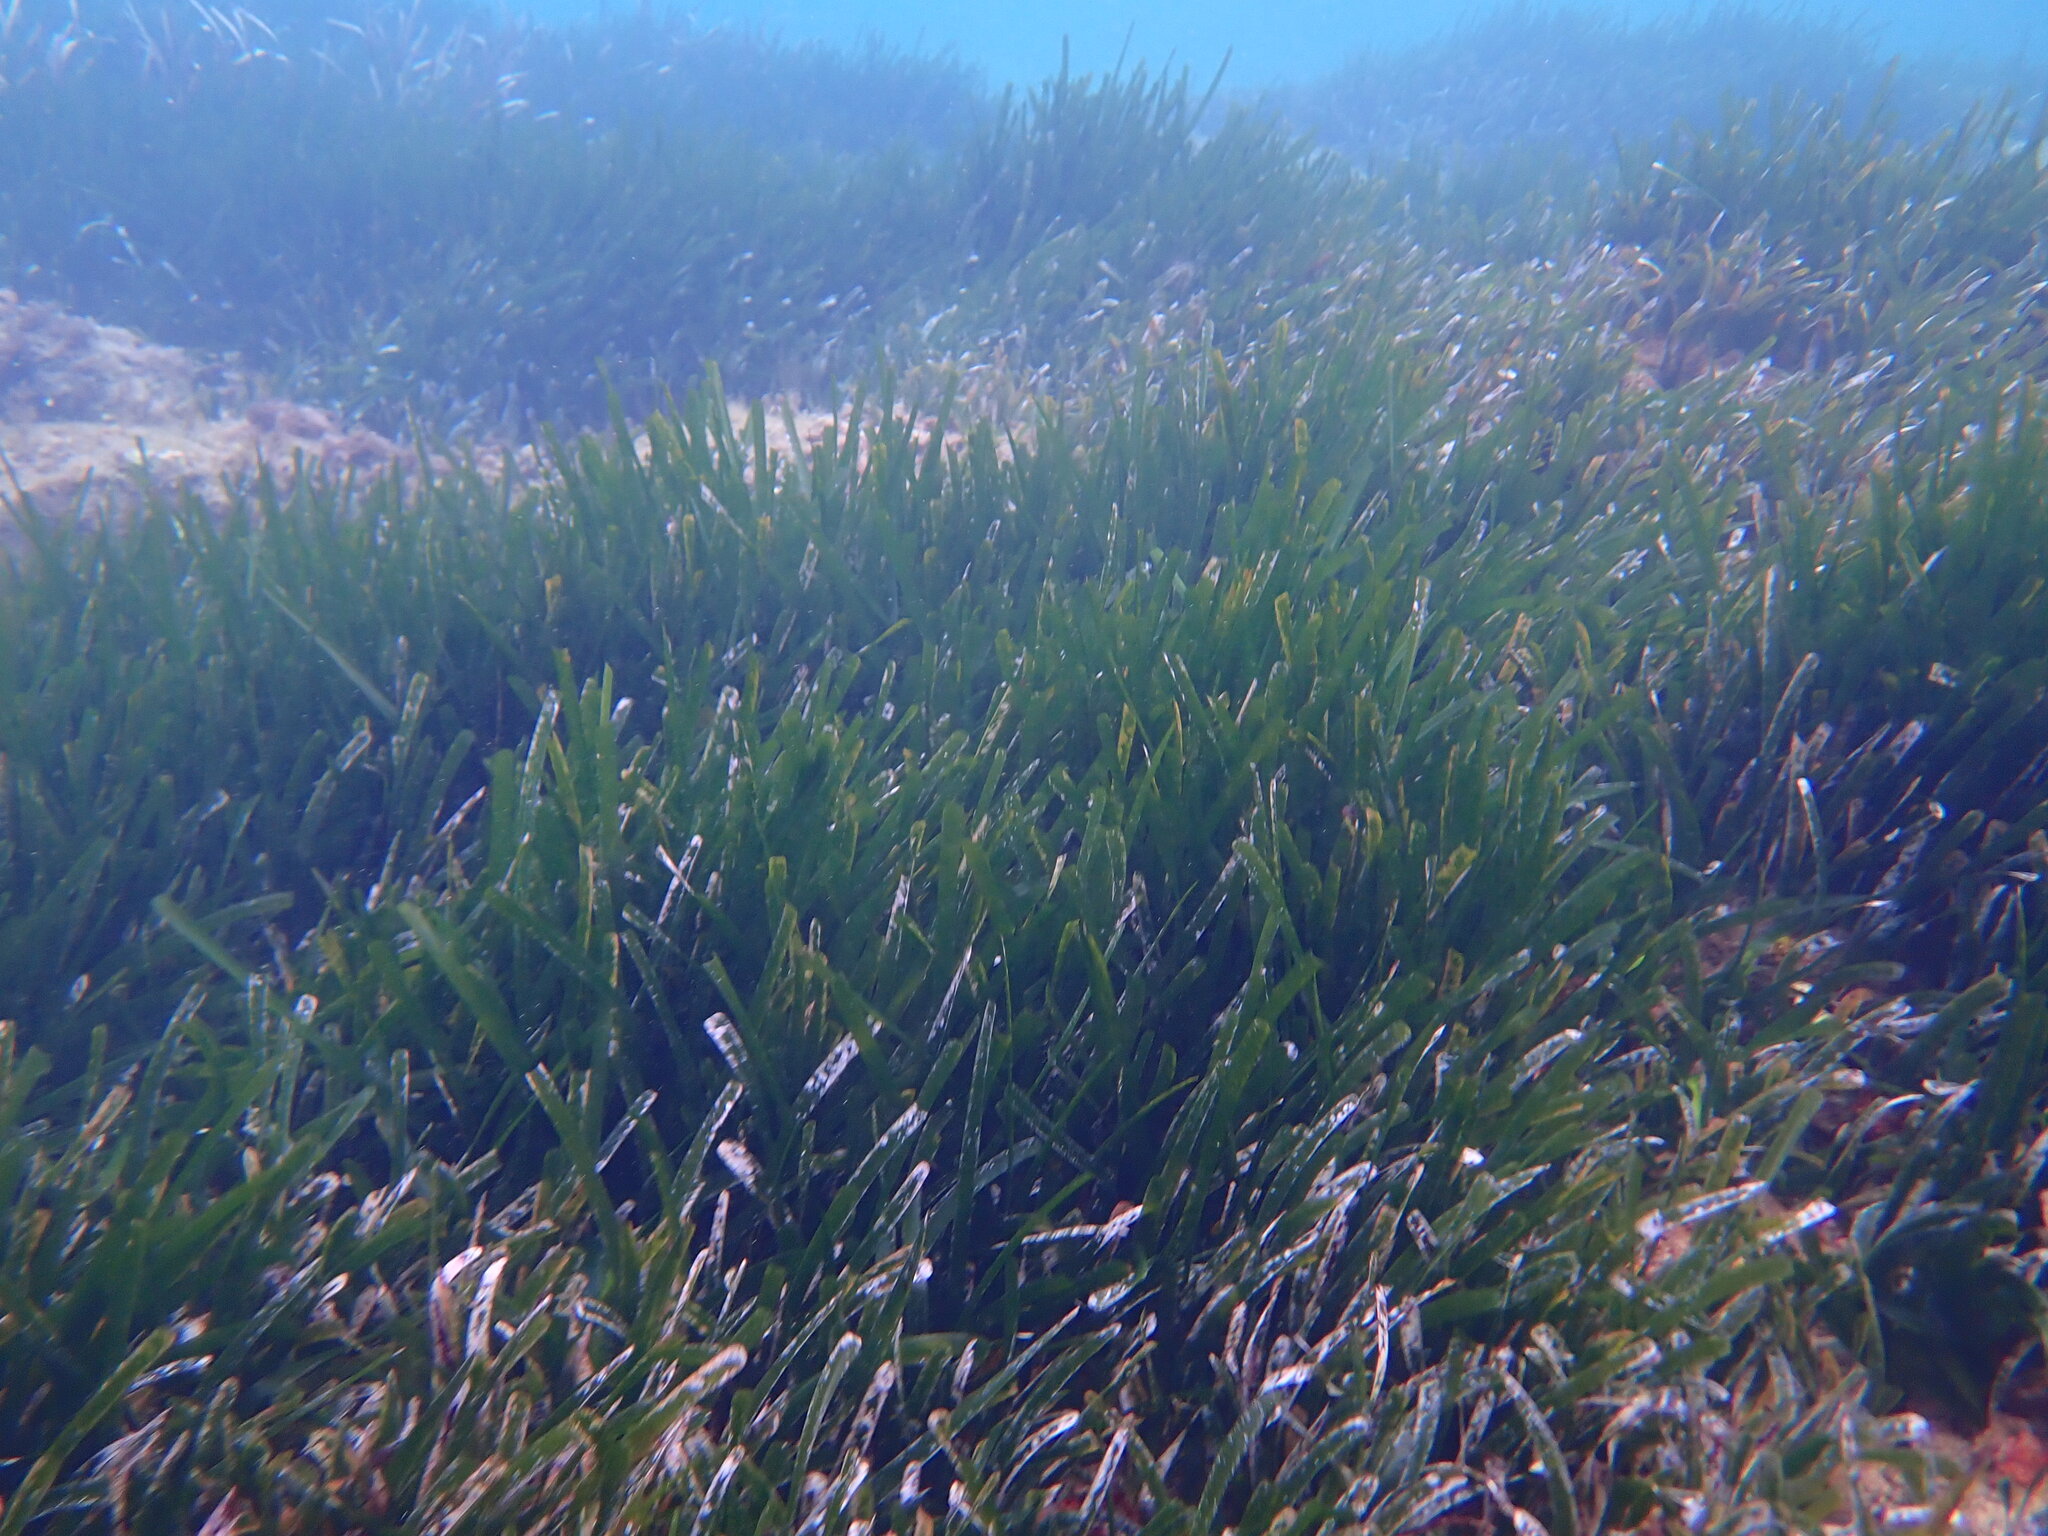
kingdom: Plantae
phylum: Tracheophyta
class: Liliopsida
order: Alismatales
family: Posidoniaceae
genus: Posidonia
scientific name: Posidonia oceanica
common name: Mediterranean tapeweed
